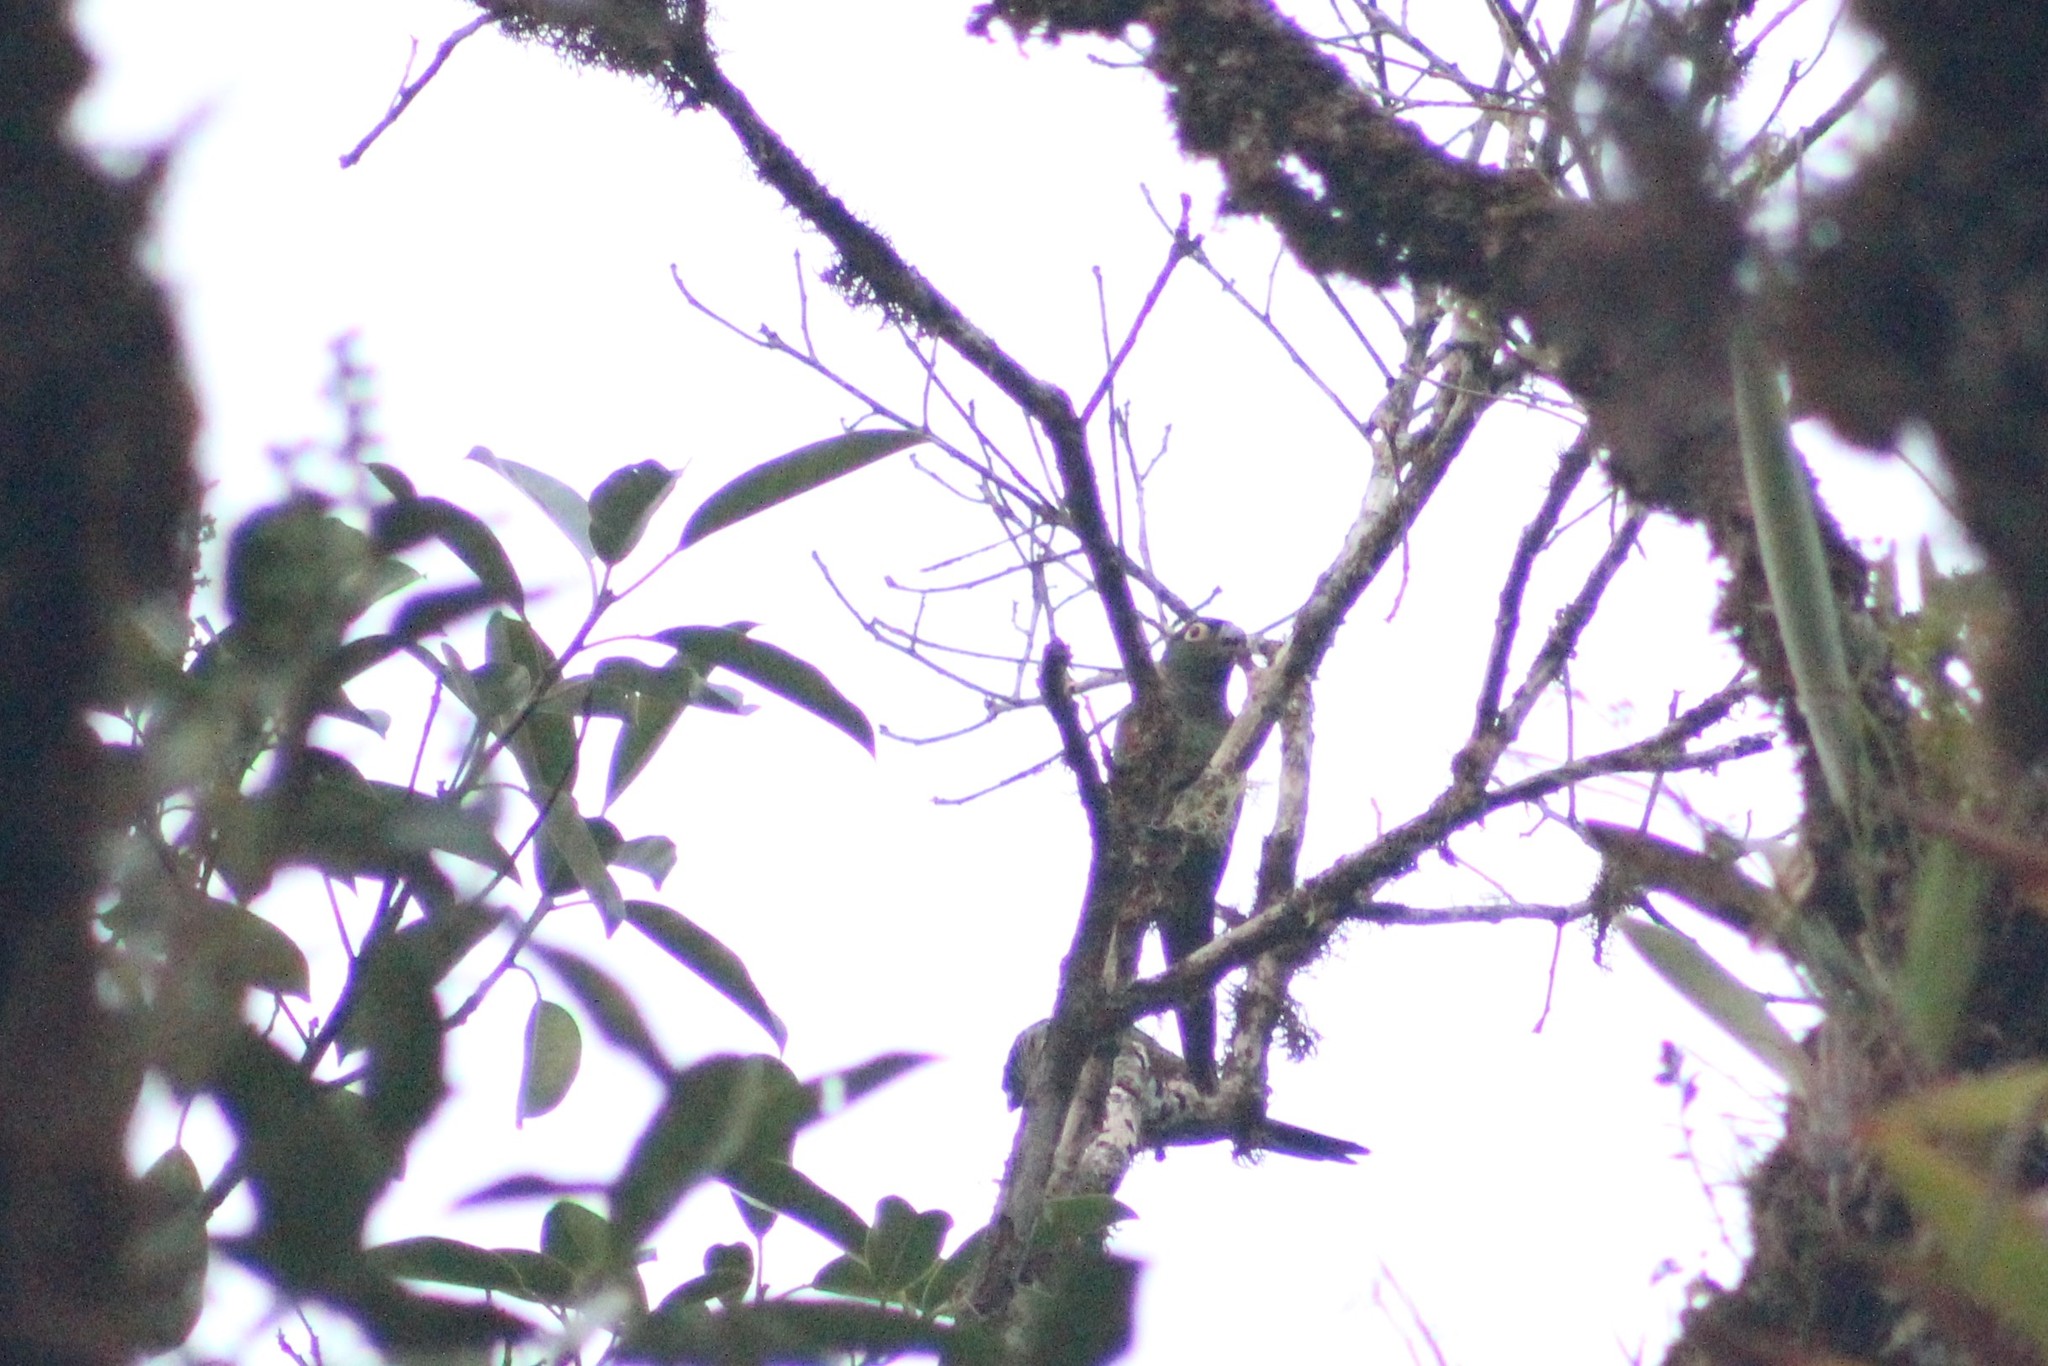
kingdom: Animalia
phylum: Chordata
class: Aves
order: Psittaciformes
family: Psittacidae
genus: Pyrrhura
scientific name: Pyrrhura melanura
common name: Maroon-tailed parakeet
